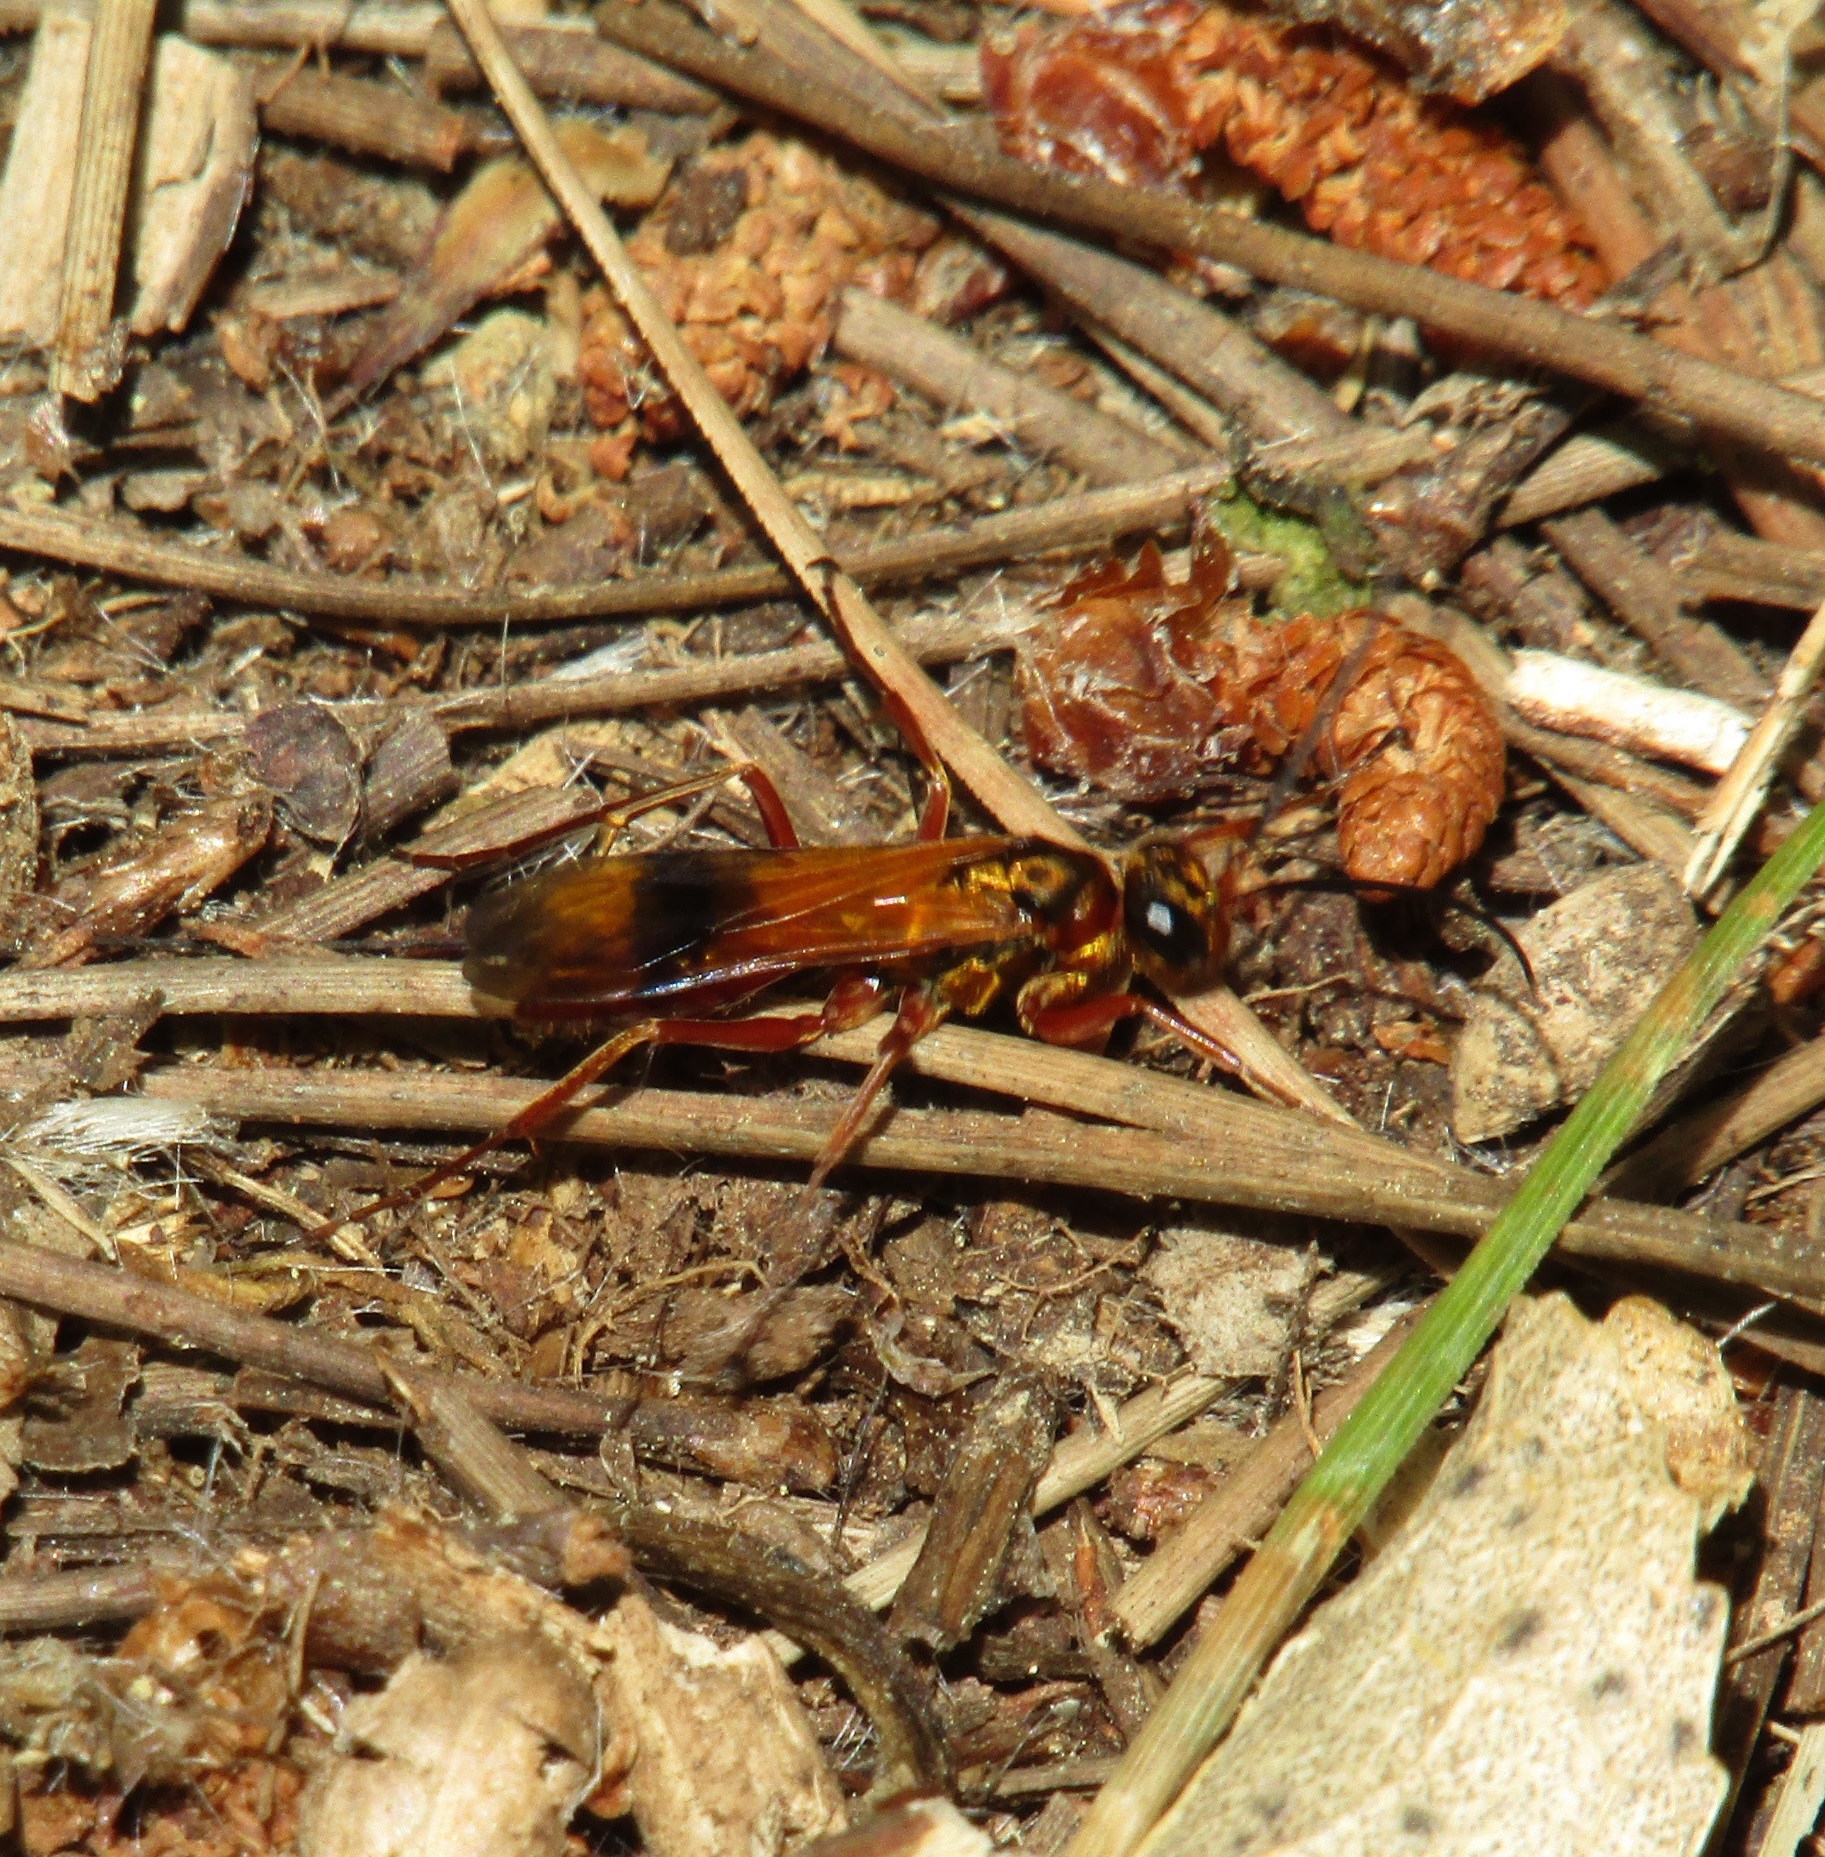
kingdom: Animalia
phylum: Arthropoda
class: Insecta
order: Hymenoptera
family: Pompilidae
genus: Sphictostethus
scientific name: Sphictostethus fugax
